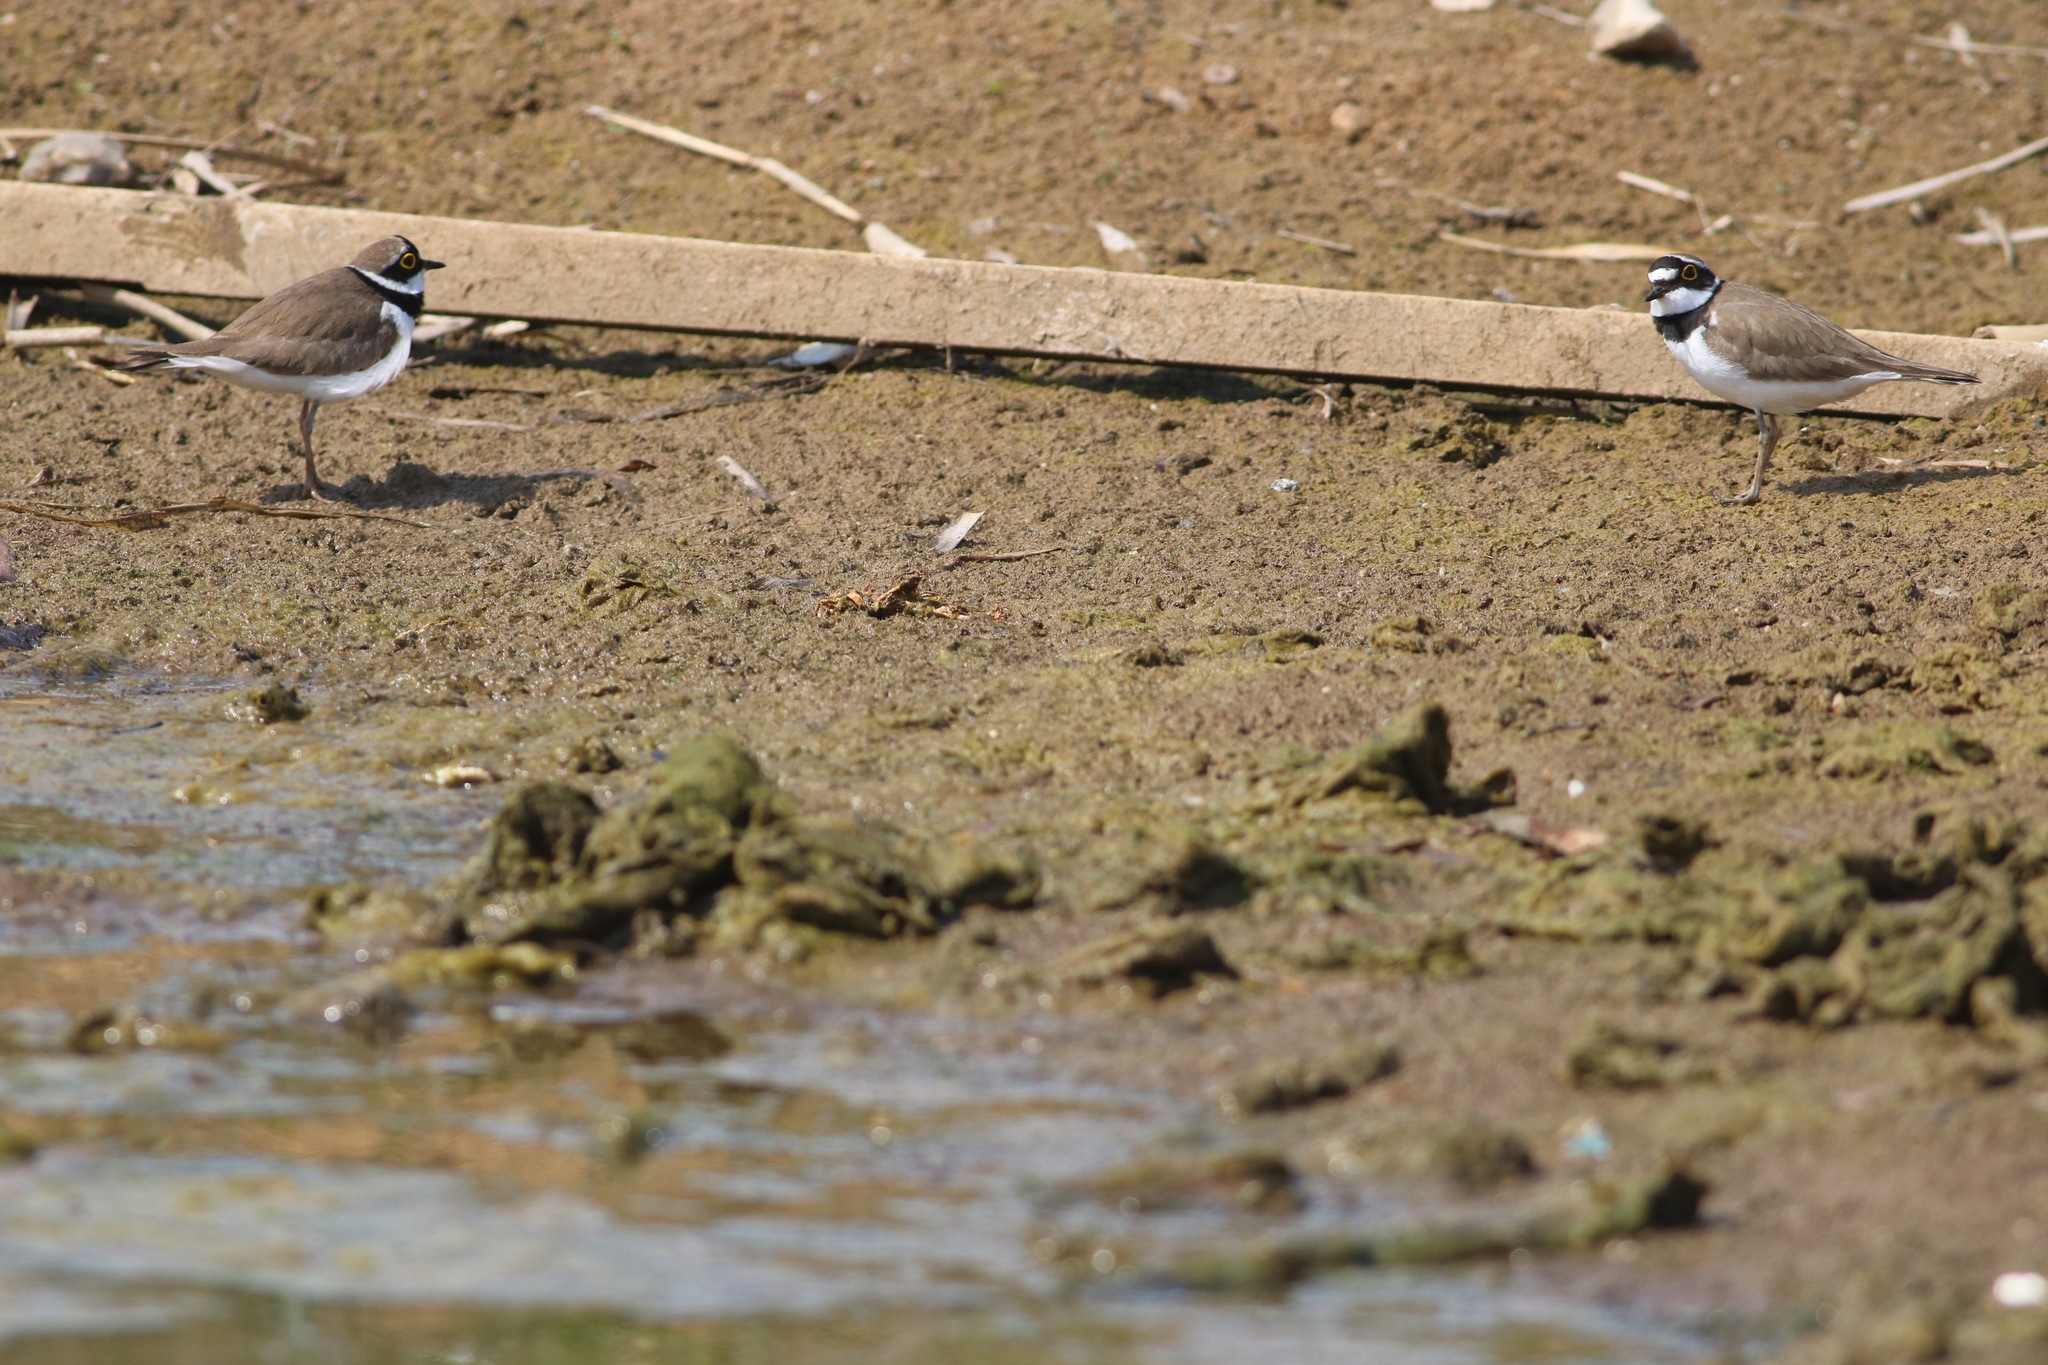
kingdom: Animalia
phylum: Chordata
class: Aves
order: Charadriiformes
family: Charadriidae
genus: Charadrius
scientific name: Charadrius dubius
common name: Little ringed plover
